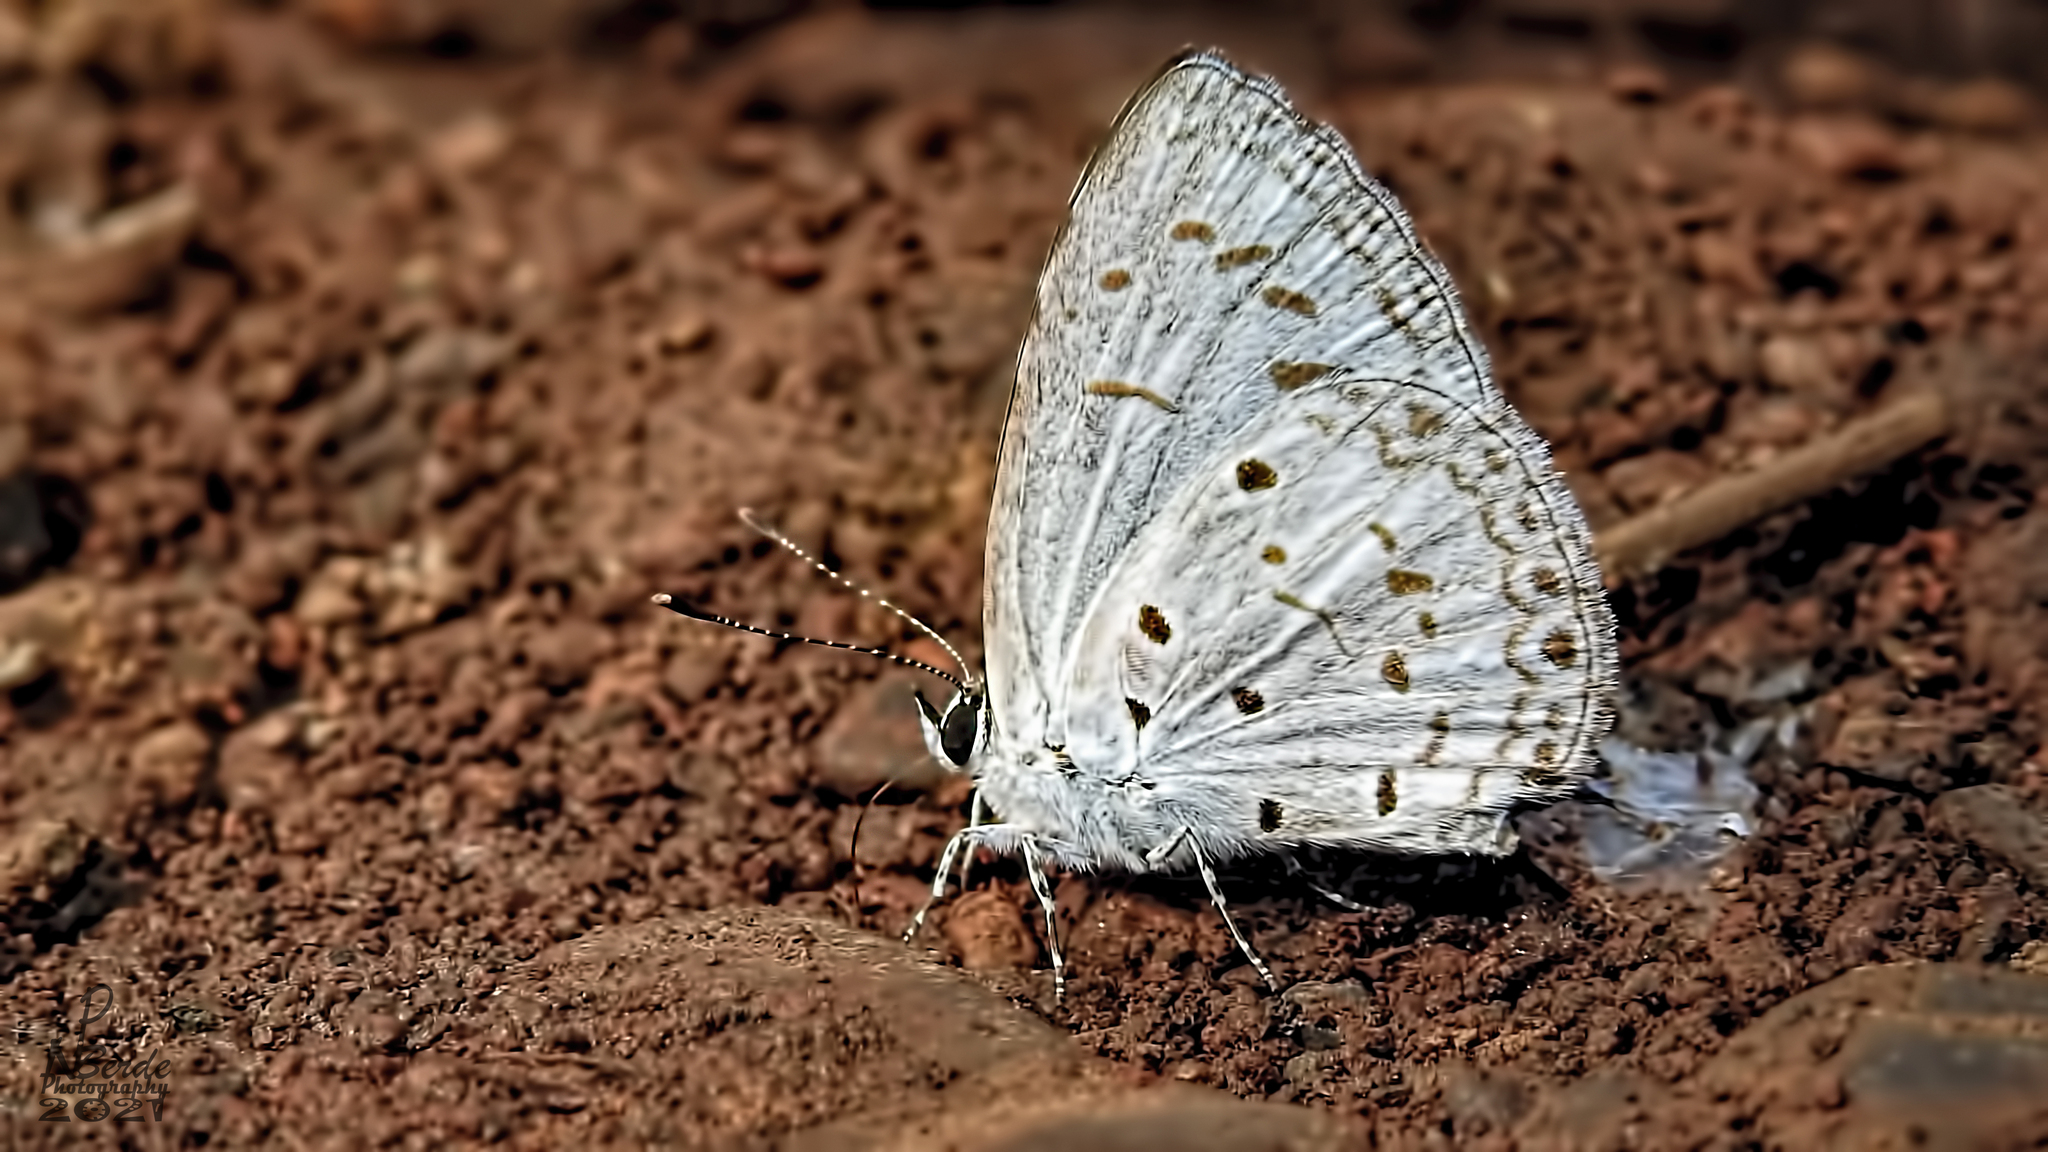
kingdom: Animalia
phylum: Arthropoda
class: Insecta
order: Lepidoptera
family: Lycaenidae
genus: Acytolepis
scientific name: Acytolepis puspa
